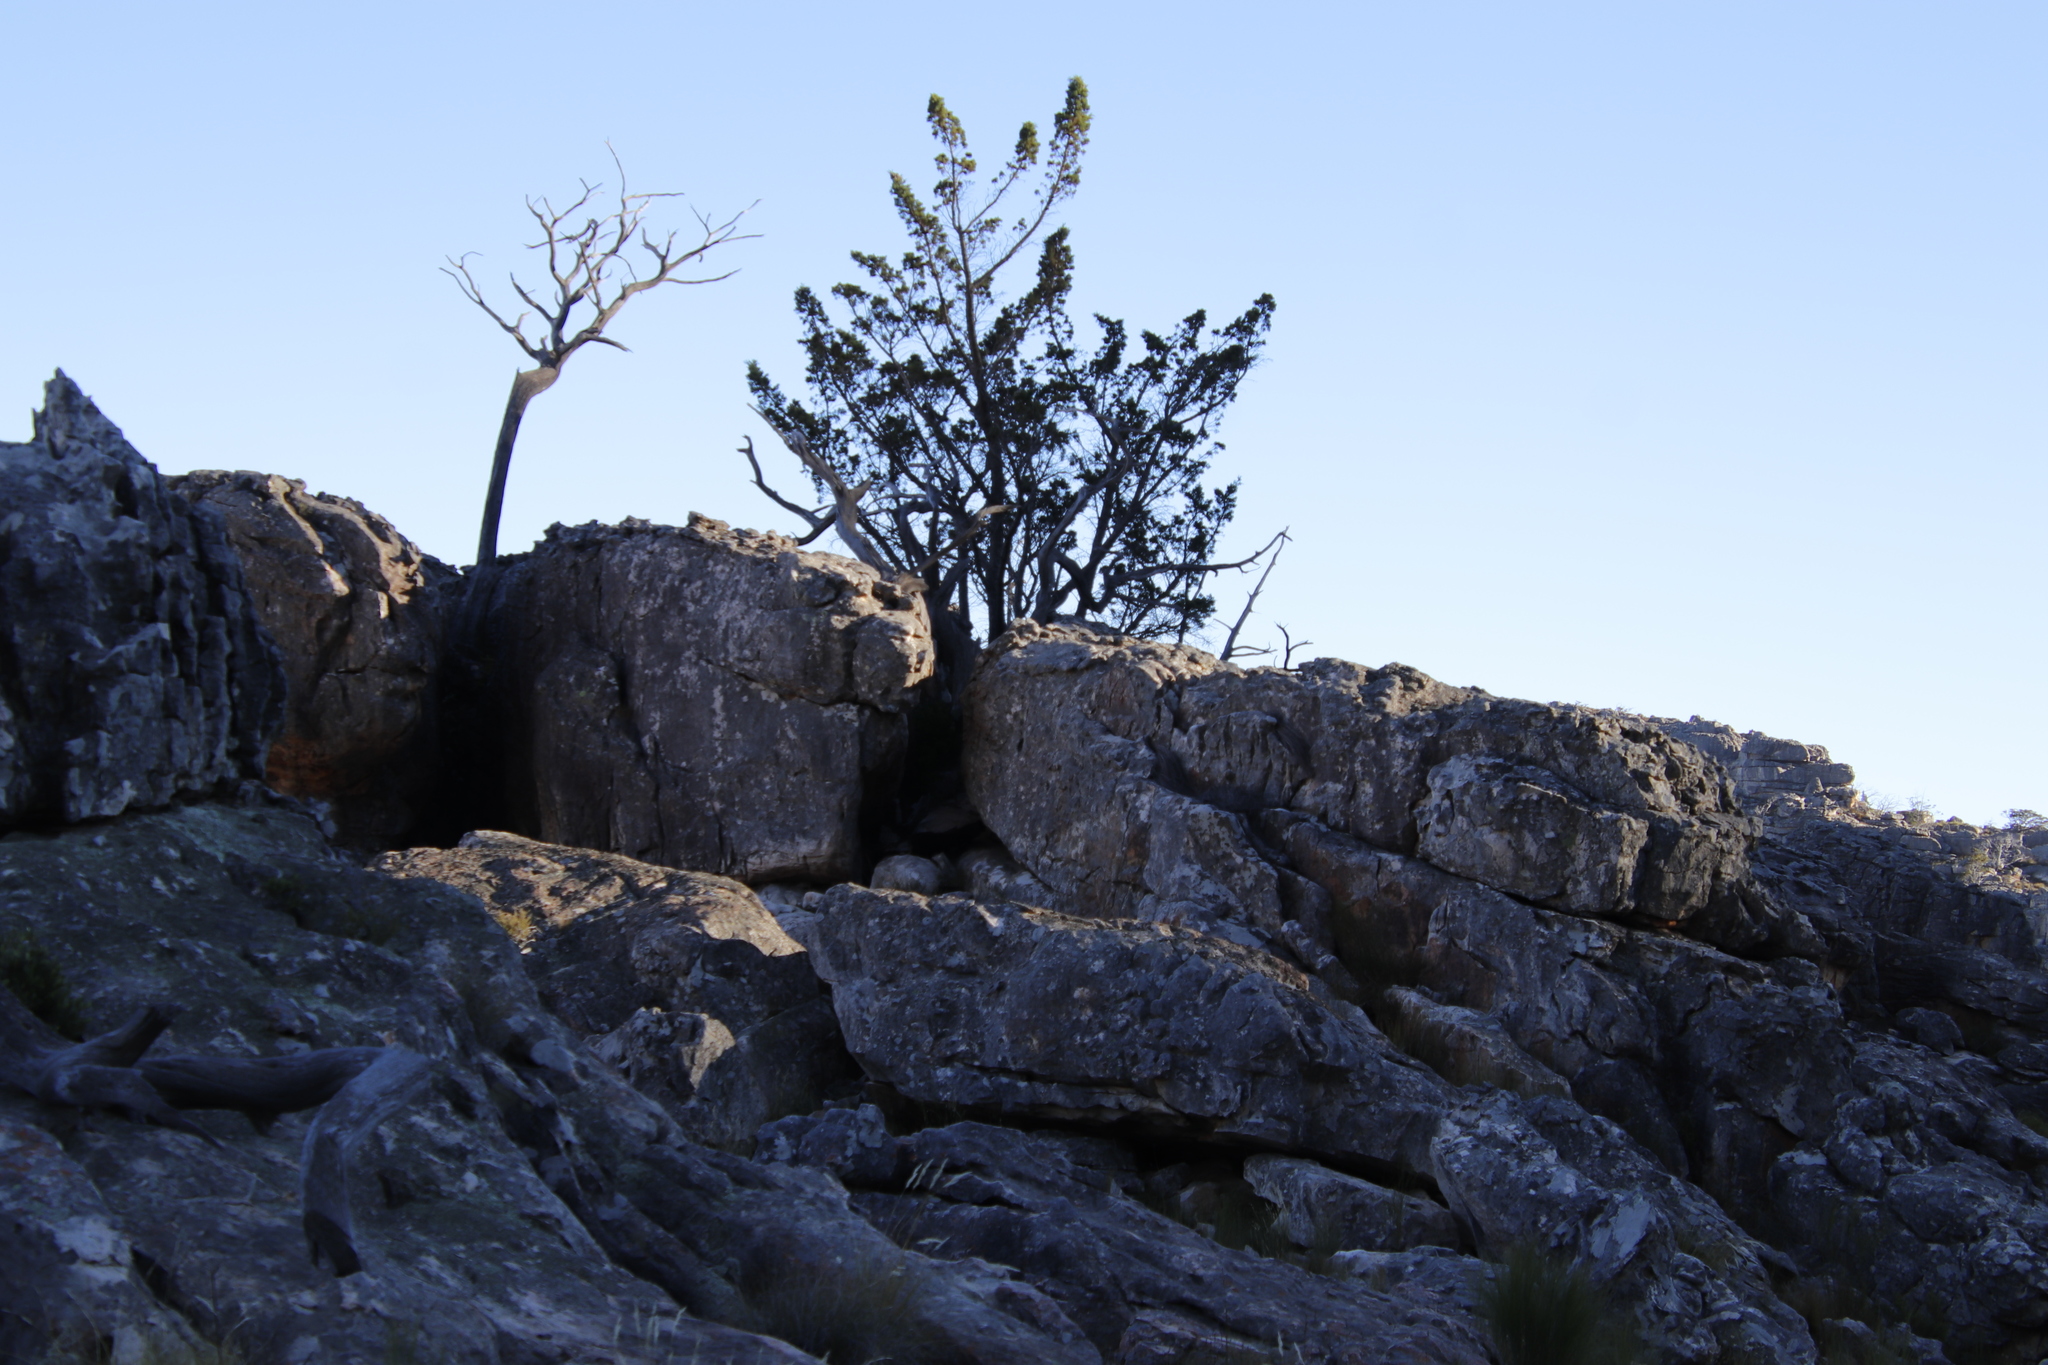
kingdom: Plantae
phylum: Tracheophyta
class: Pinopsida
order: Pinales
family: Cupressaceae
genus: Widdringtonia
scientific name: Widdringtonia nodiflora
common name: Cape cypress
